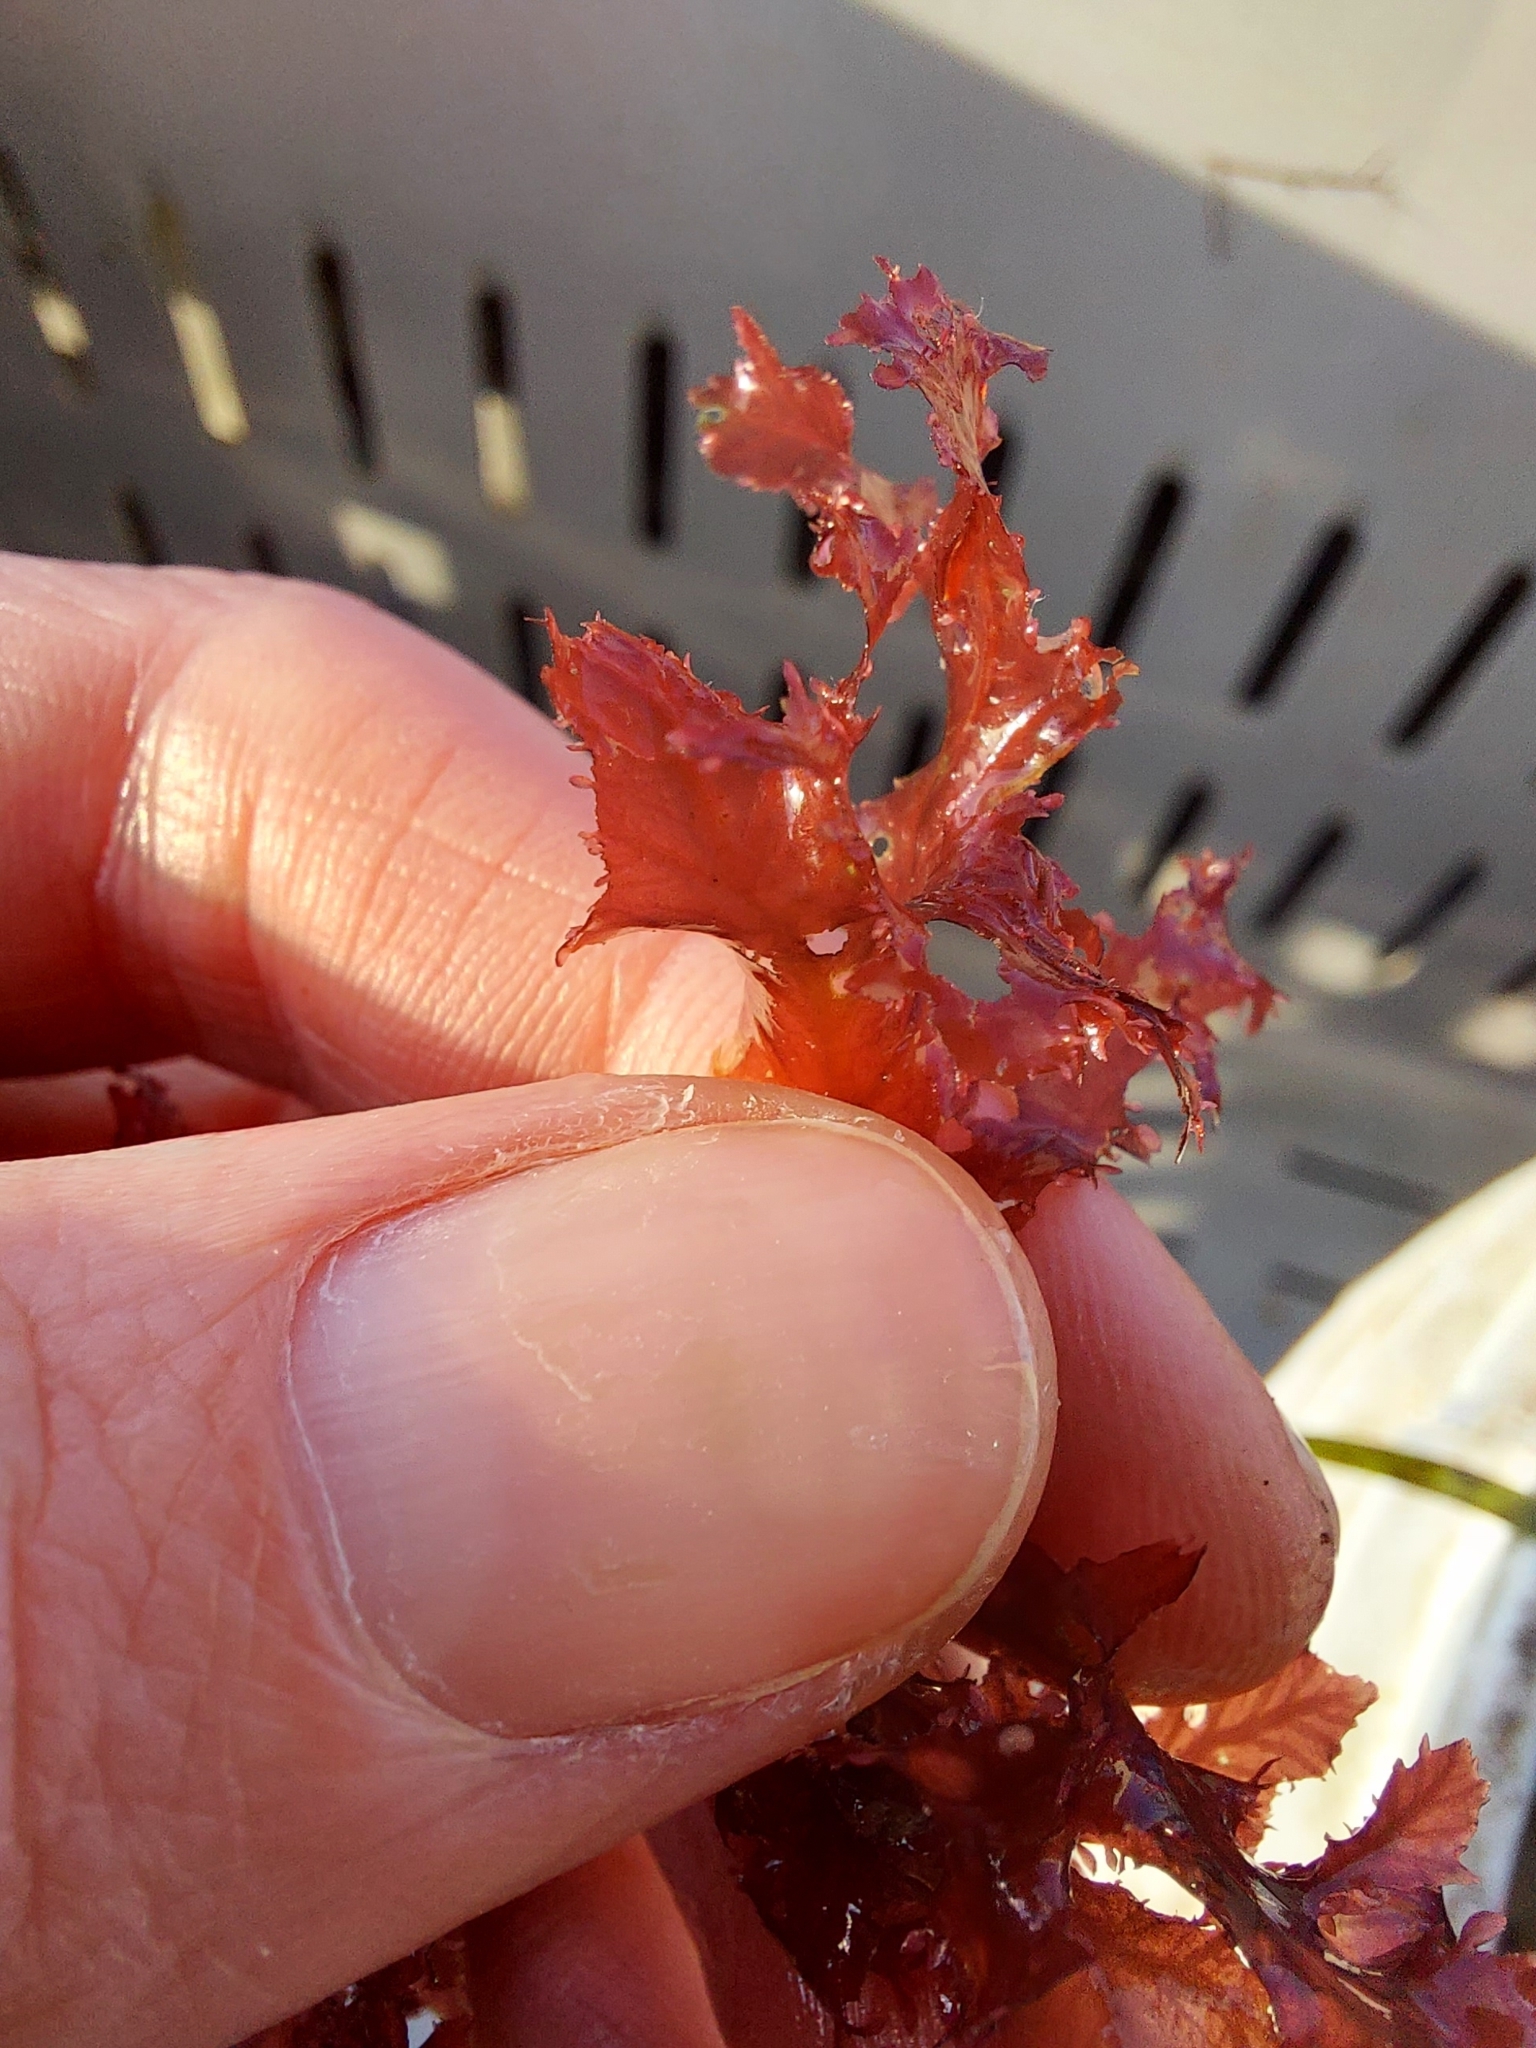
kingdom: Plantae
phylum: Rhodophyta
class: Florideophyceae
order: Ceramiales
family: Delesseriaceae
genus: Phycodrys
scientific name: Phycodrys rubens
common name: Sea oak
